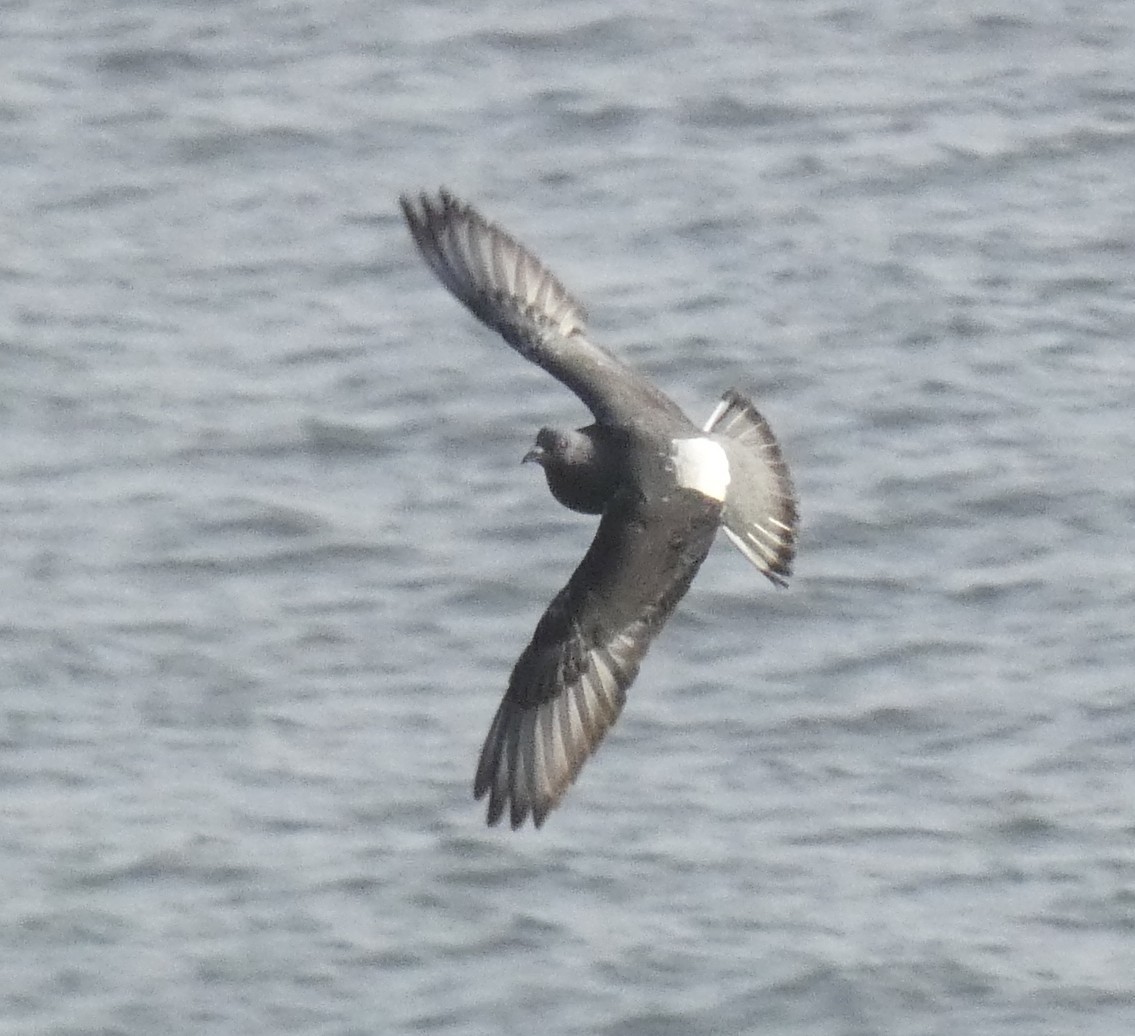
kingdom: Animalia
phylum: Chordata
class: Aves
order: Columbiformes
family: Columbidae
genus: Columba
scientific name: Columba livia
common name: Rock pigeon
